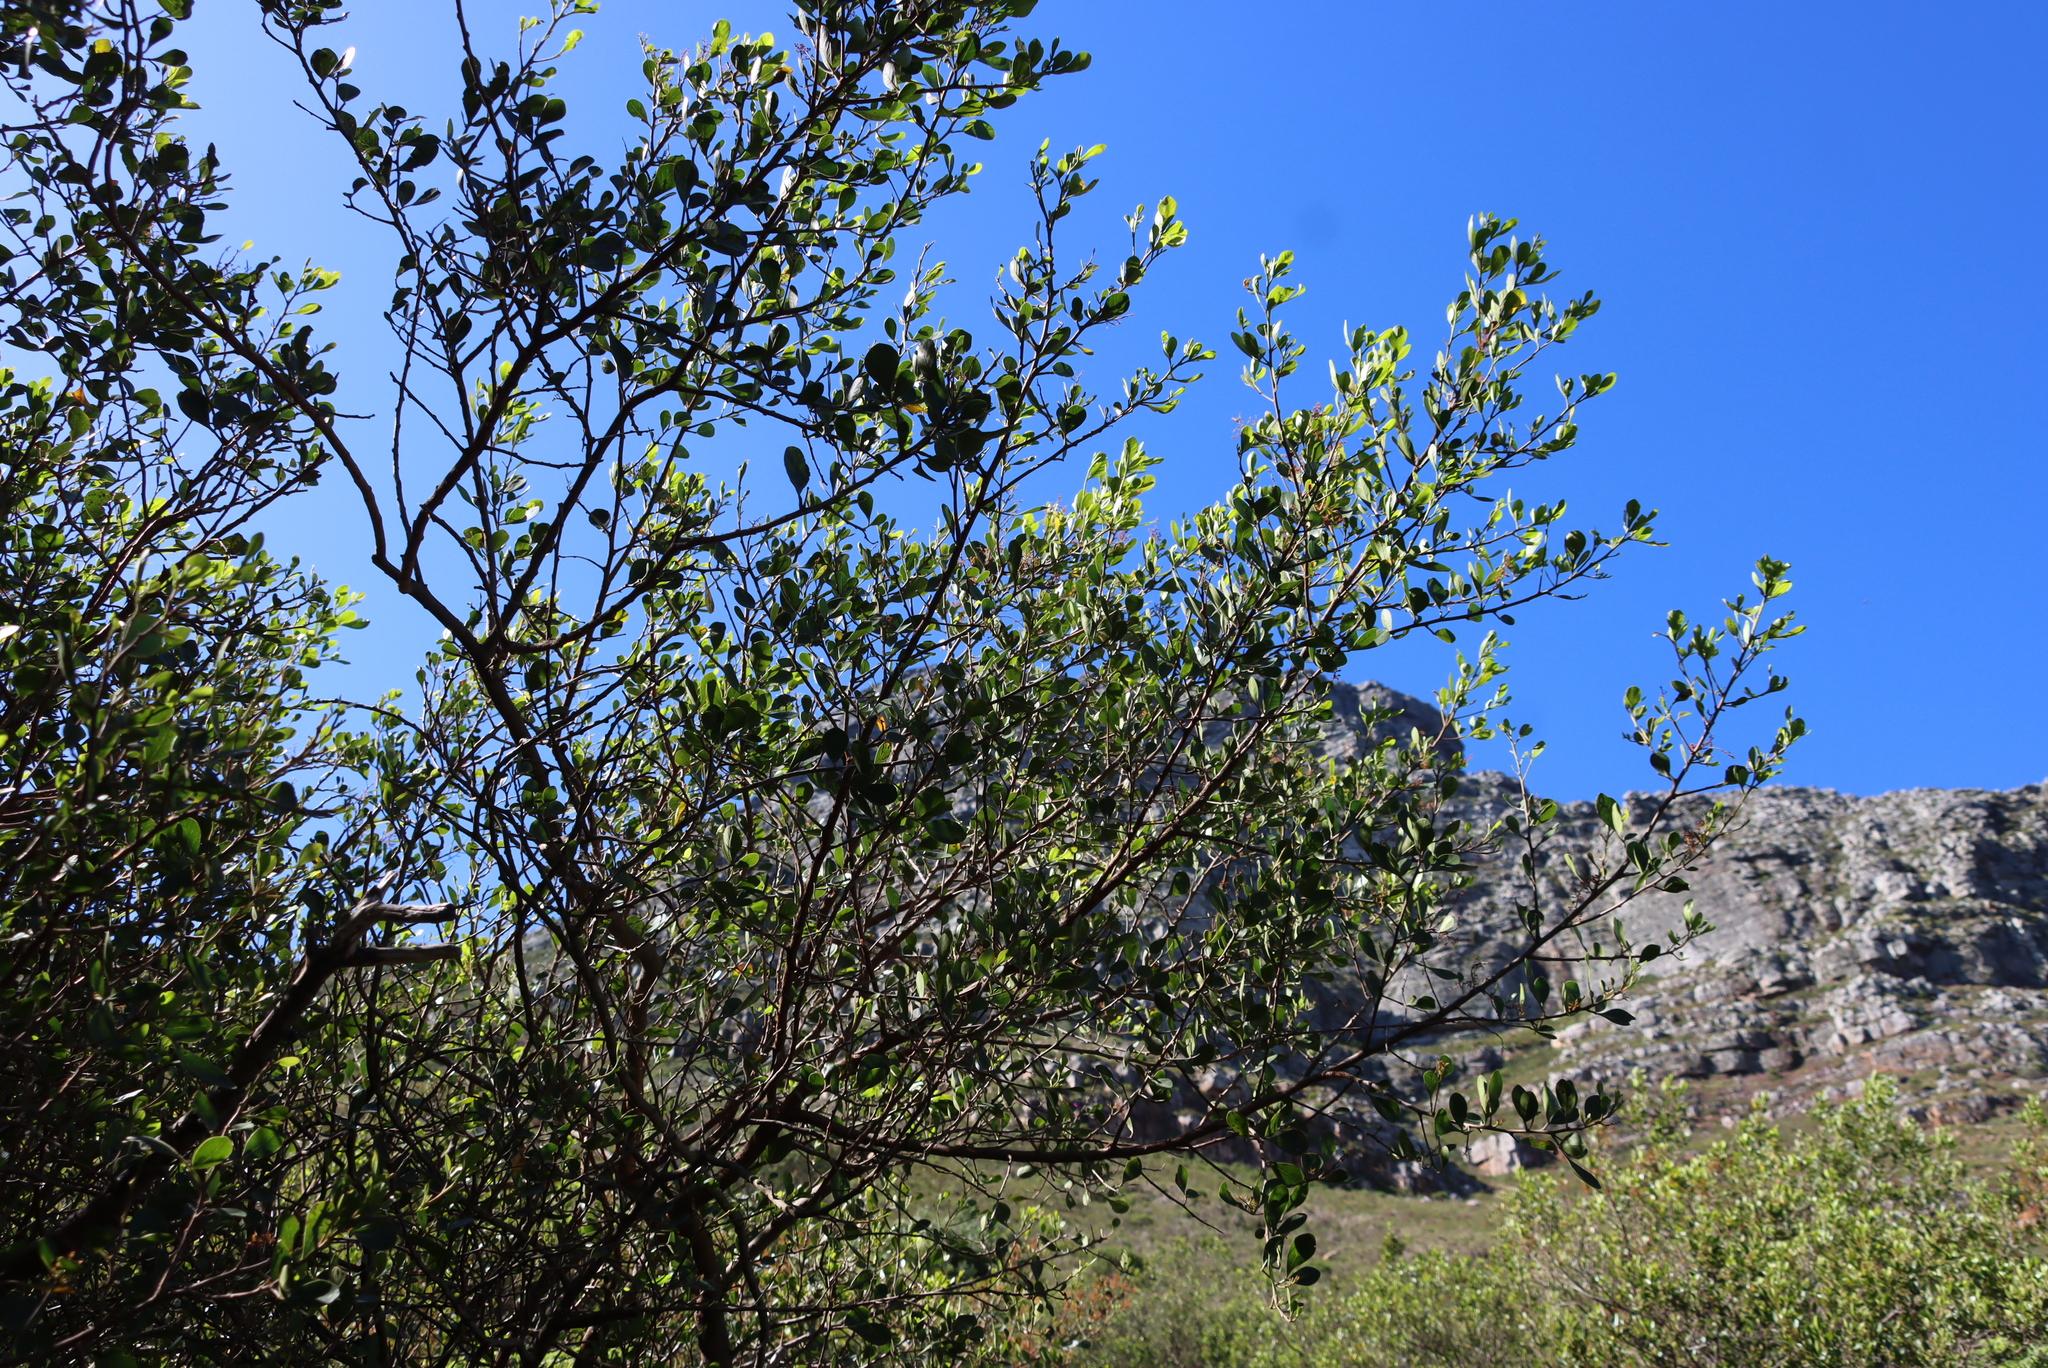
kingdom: Plantae
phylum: Tracheophyta
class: Magnoliopsida
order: Sapindales
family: Anacardiaceae
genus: Searsia
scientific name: Searsia lucida
